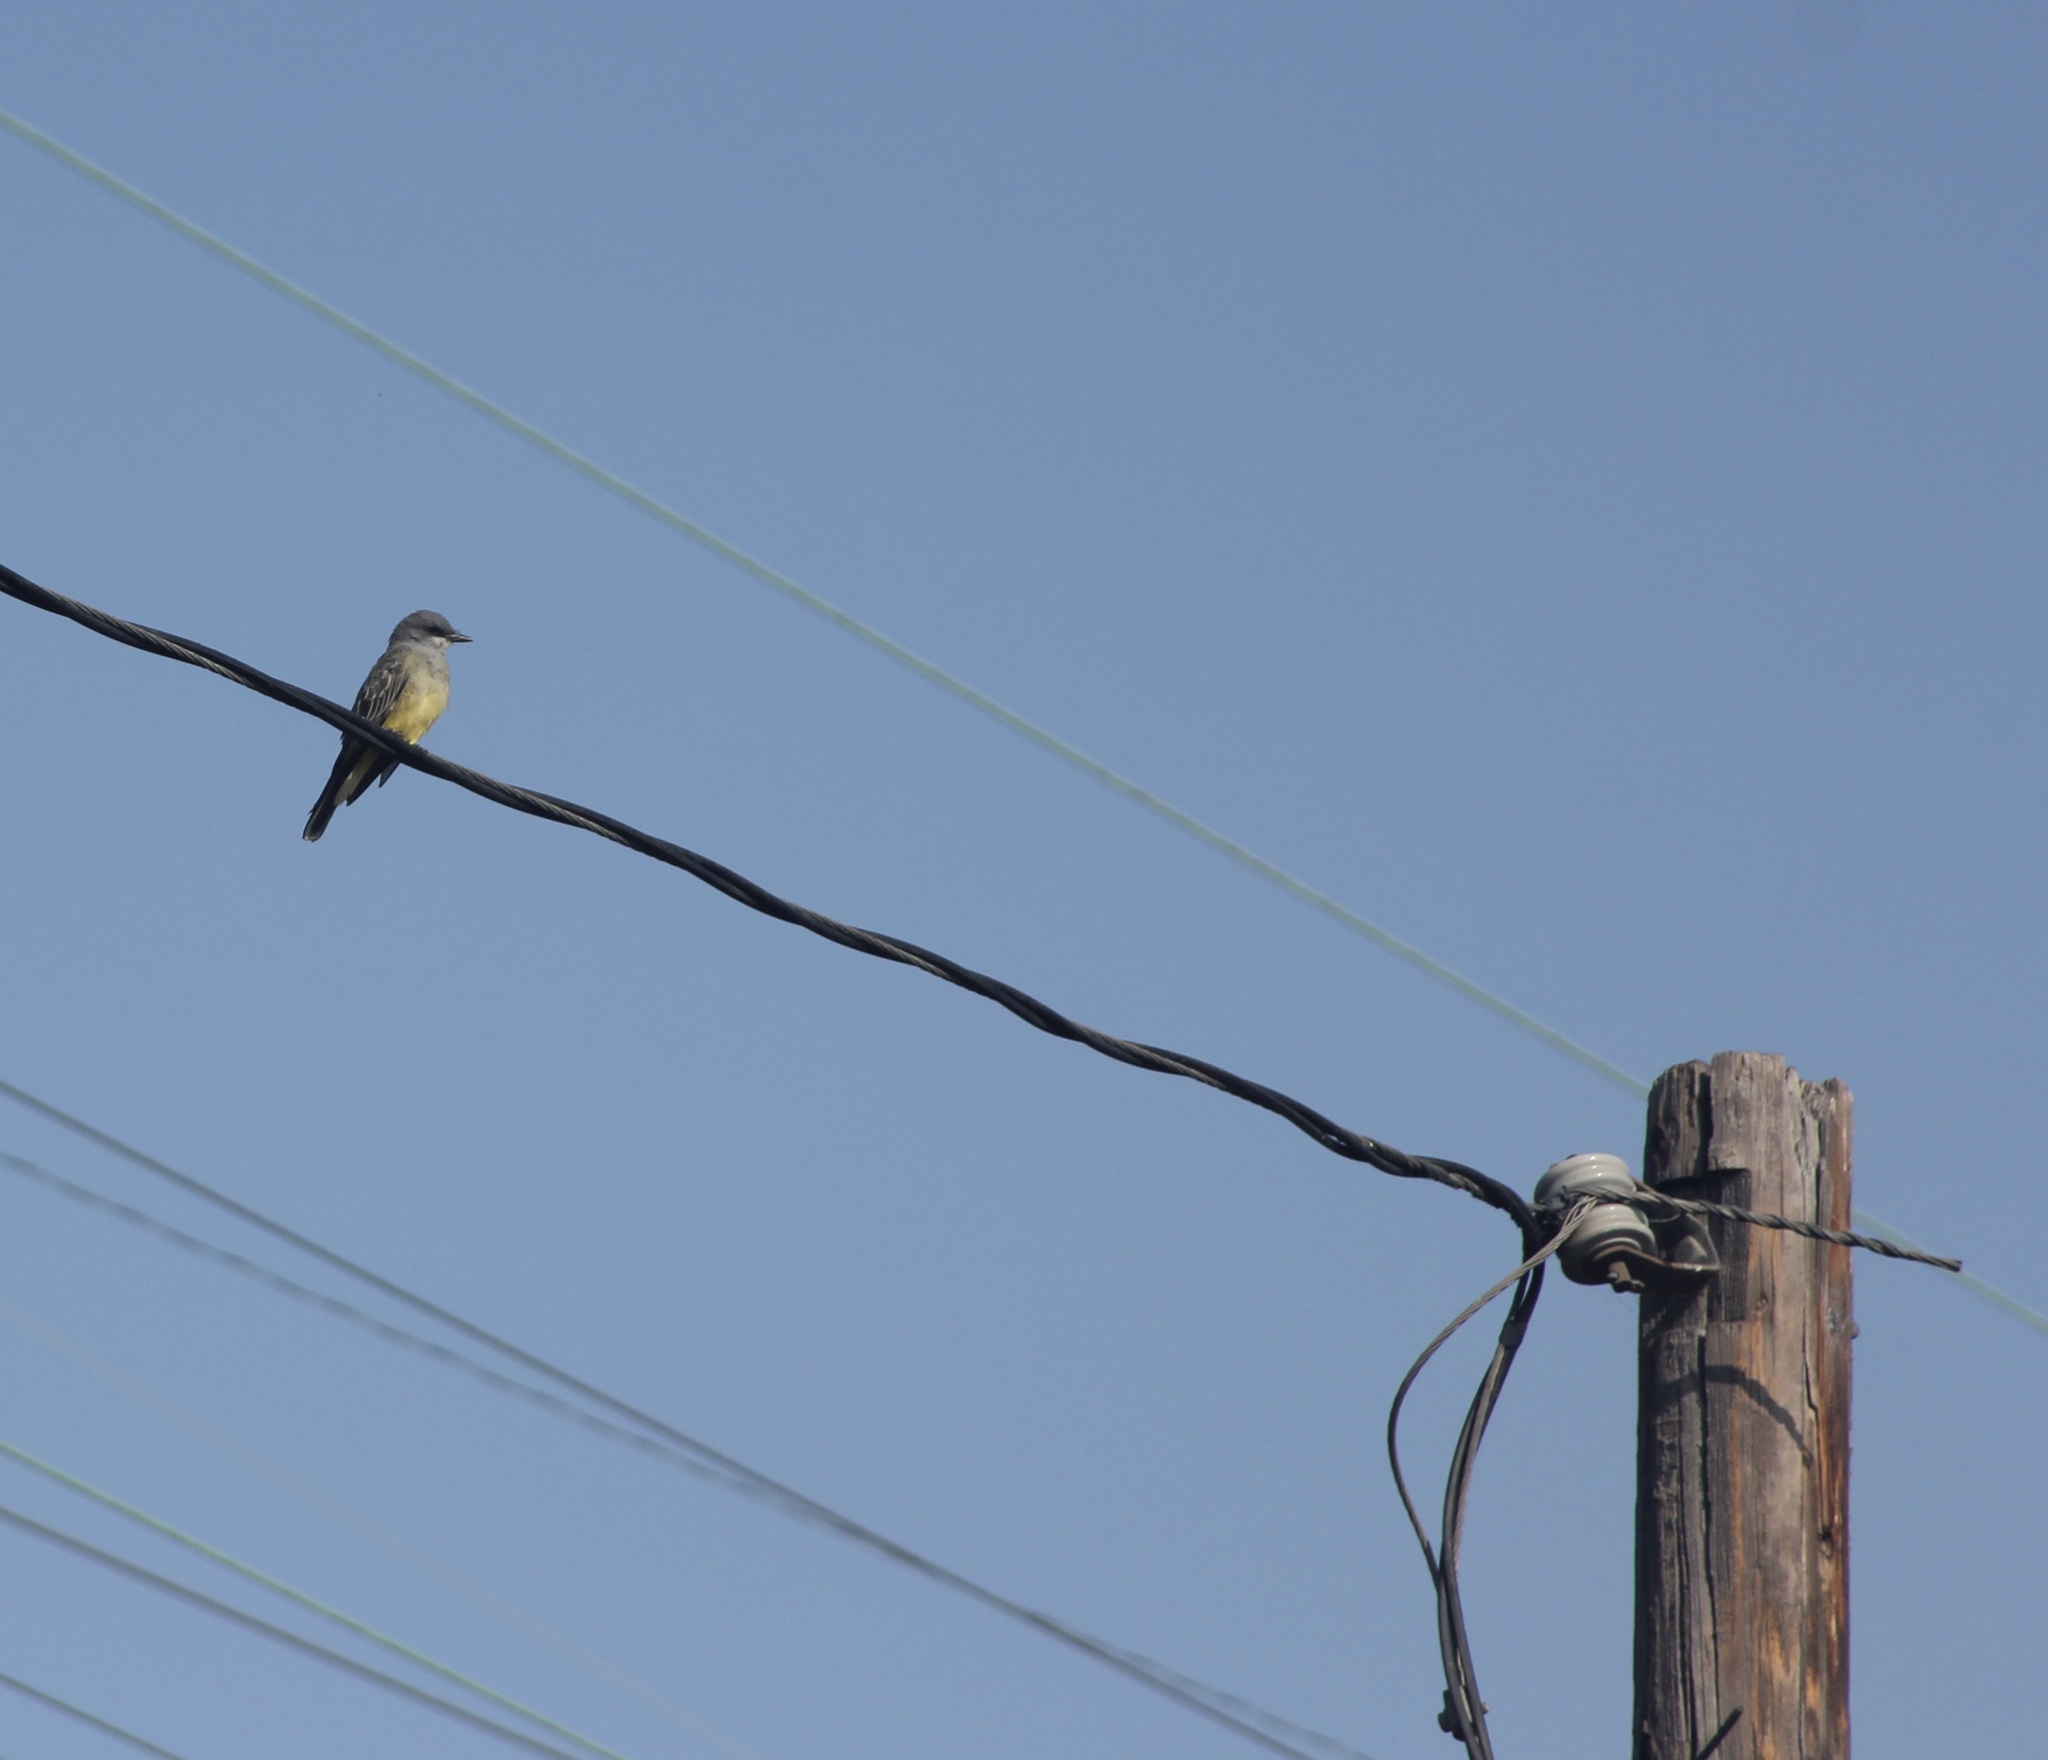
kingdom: Animalia
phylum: Chordata
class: Aves
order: Passeriformes
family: Tyrannidae
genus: Tyrannus
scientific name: Tyrannus vociferans
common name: Cassin's kingbird
